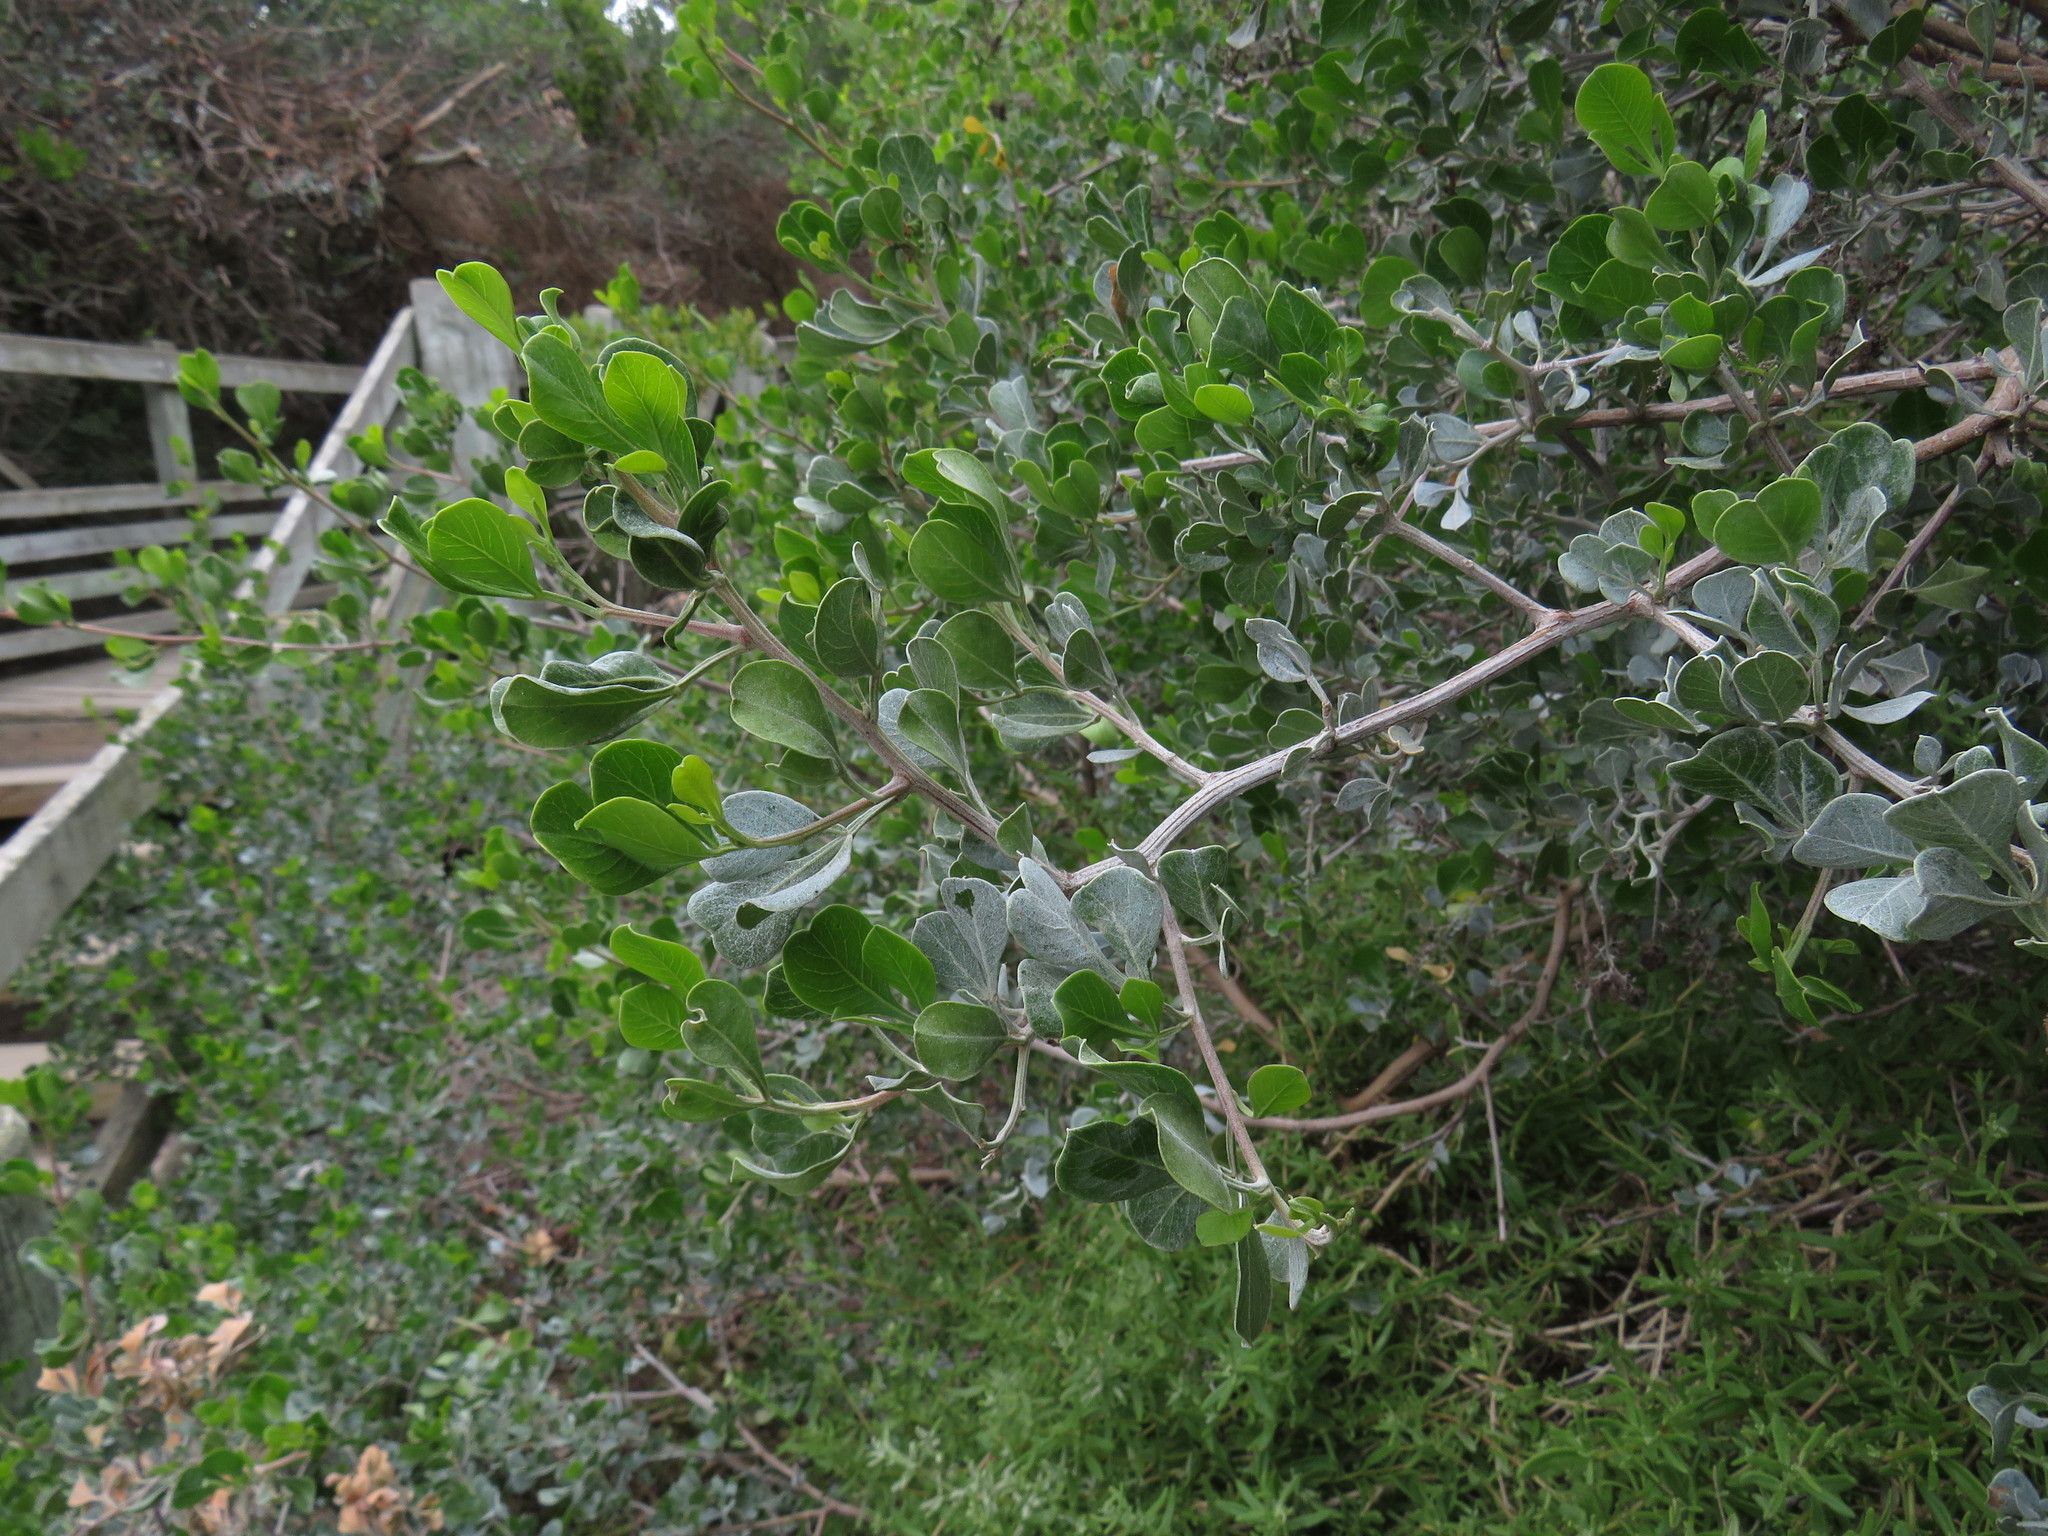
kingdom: Plantae
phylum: Tracheophyta
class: Magnoliopsida
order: Sapindales
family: Anacardiaceae
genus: Searsia
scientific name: Searsia glauca
